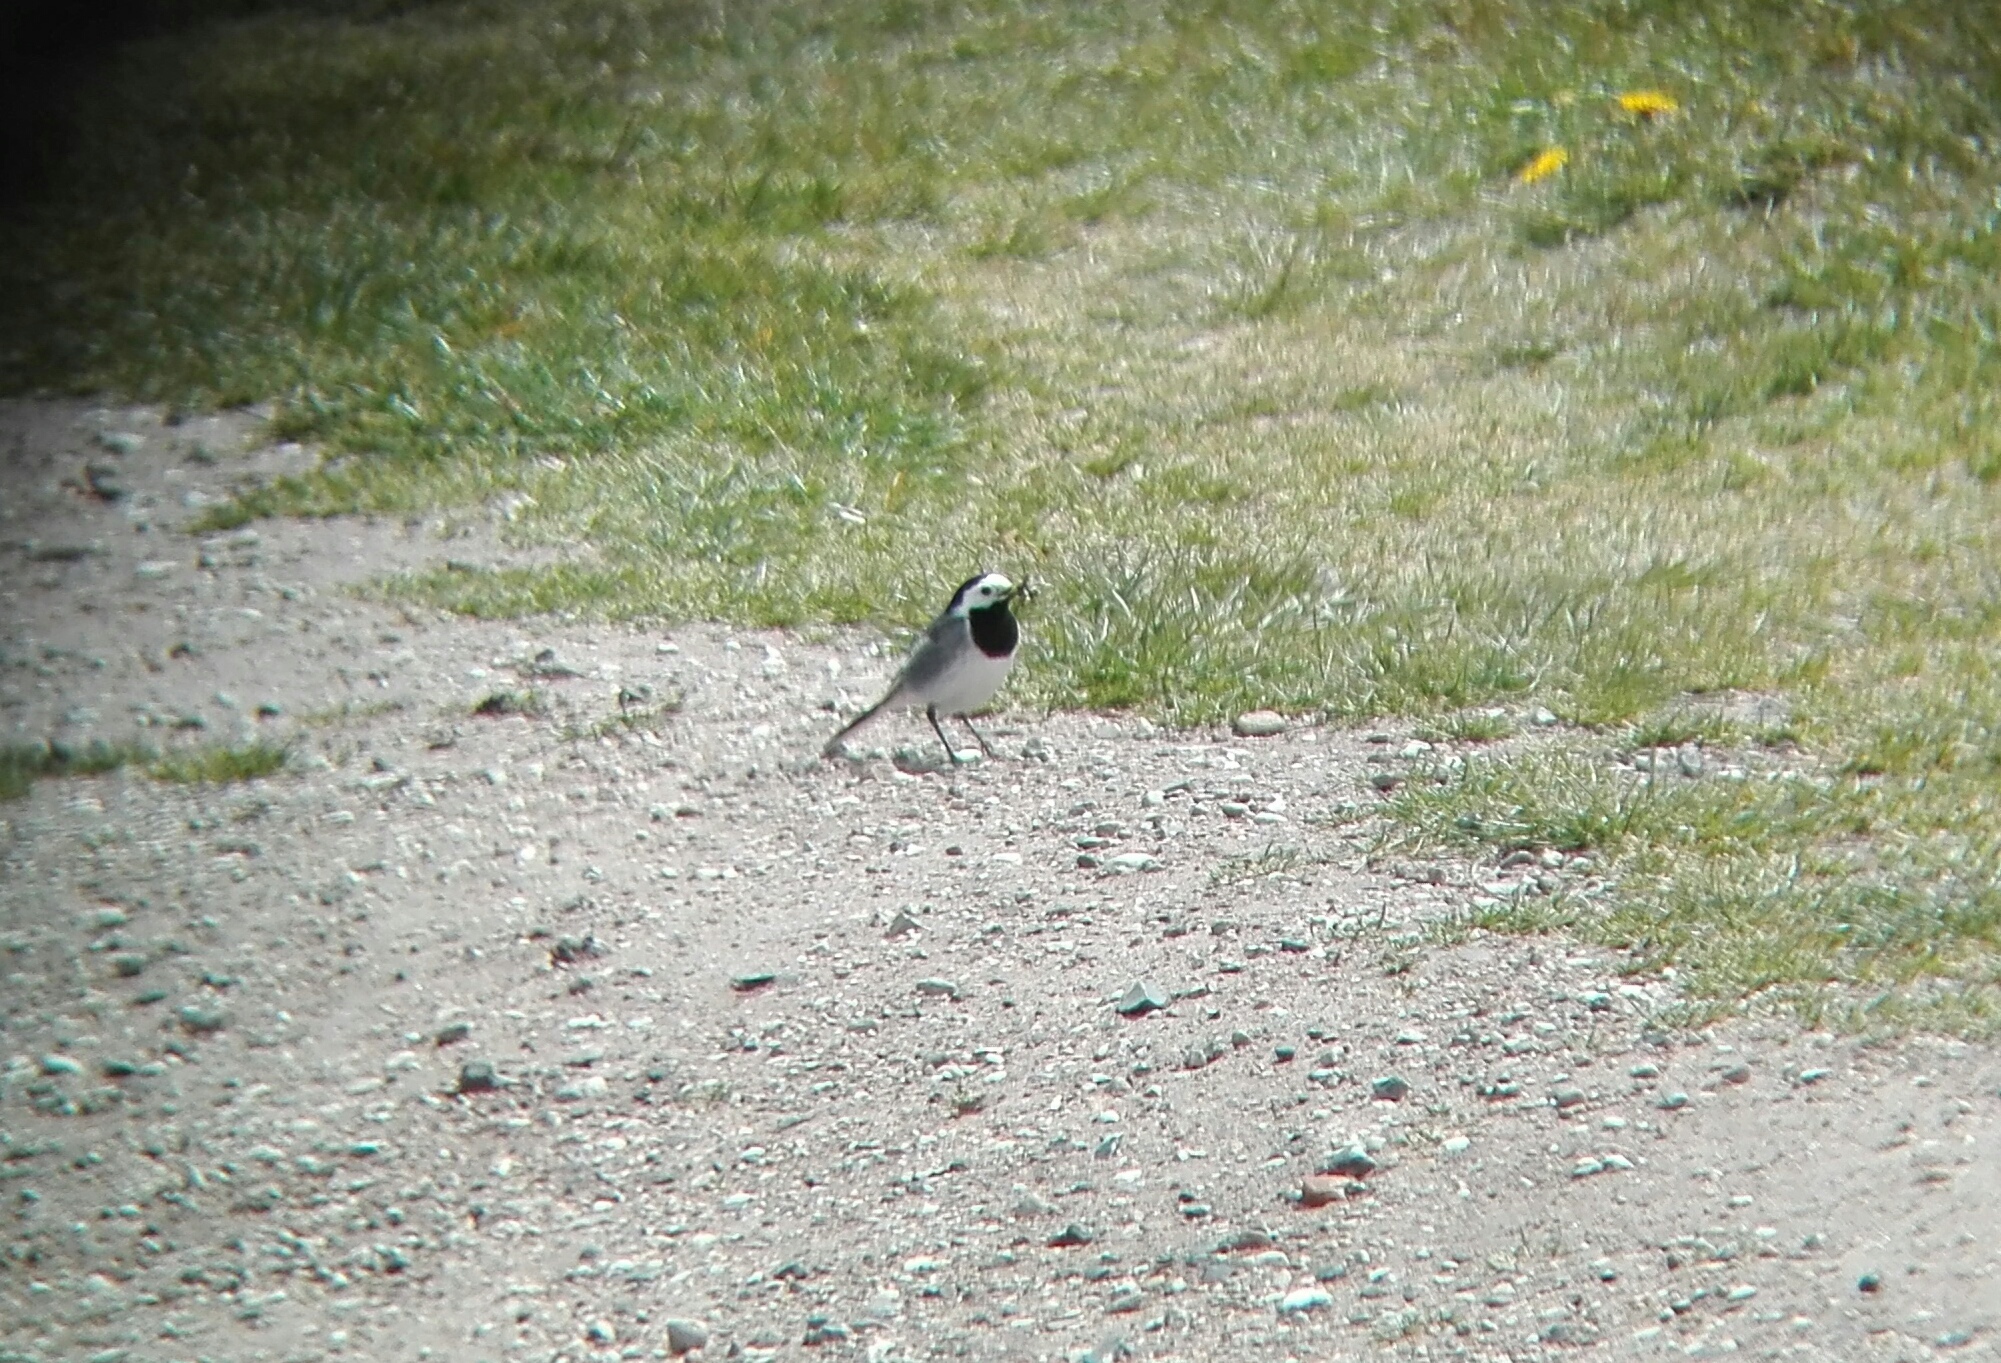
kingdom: Animalia
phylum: Chordata
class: Aves
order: Passeriformes
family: Motacillidae
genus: Motacilla
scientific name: Motacilla alba
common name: White wagtail
